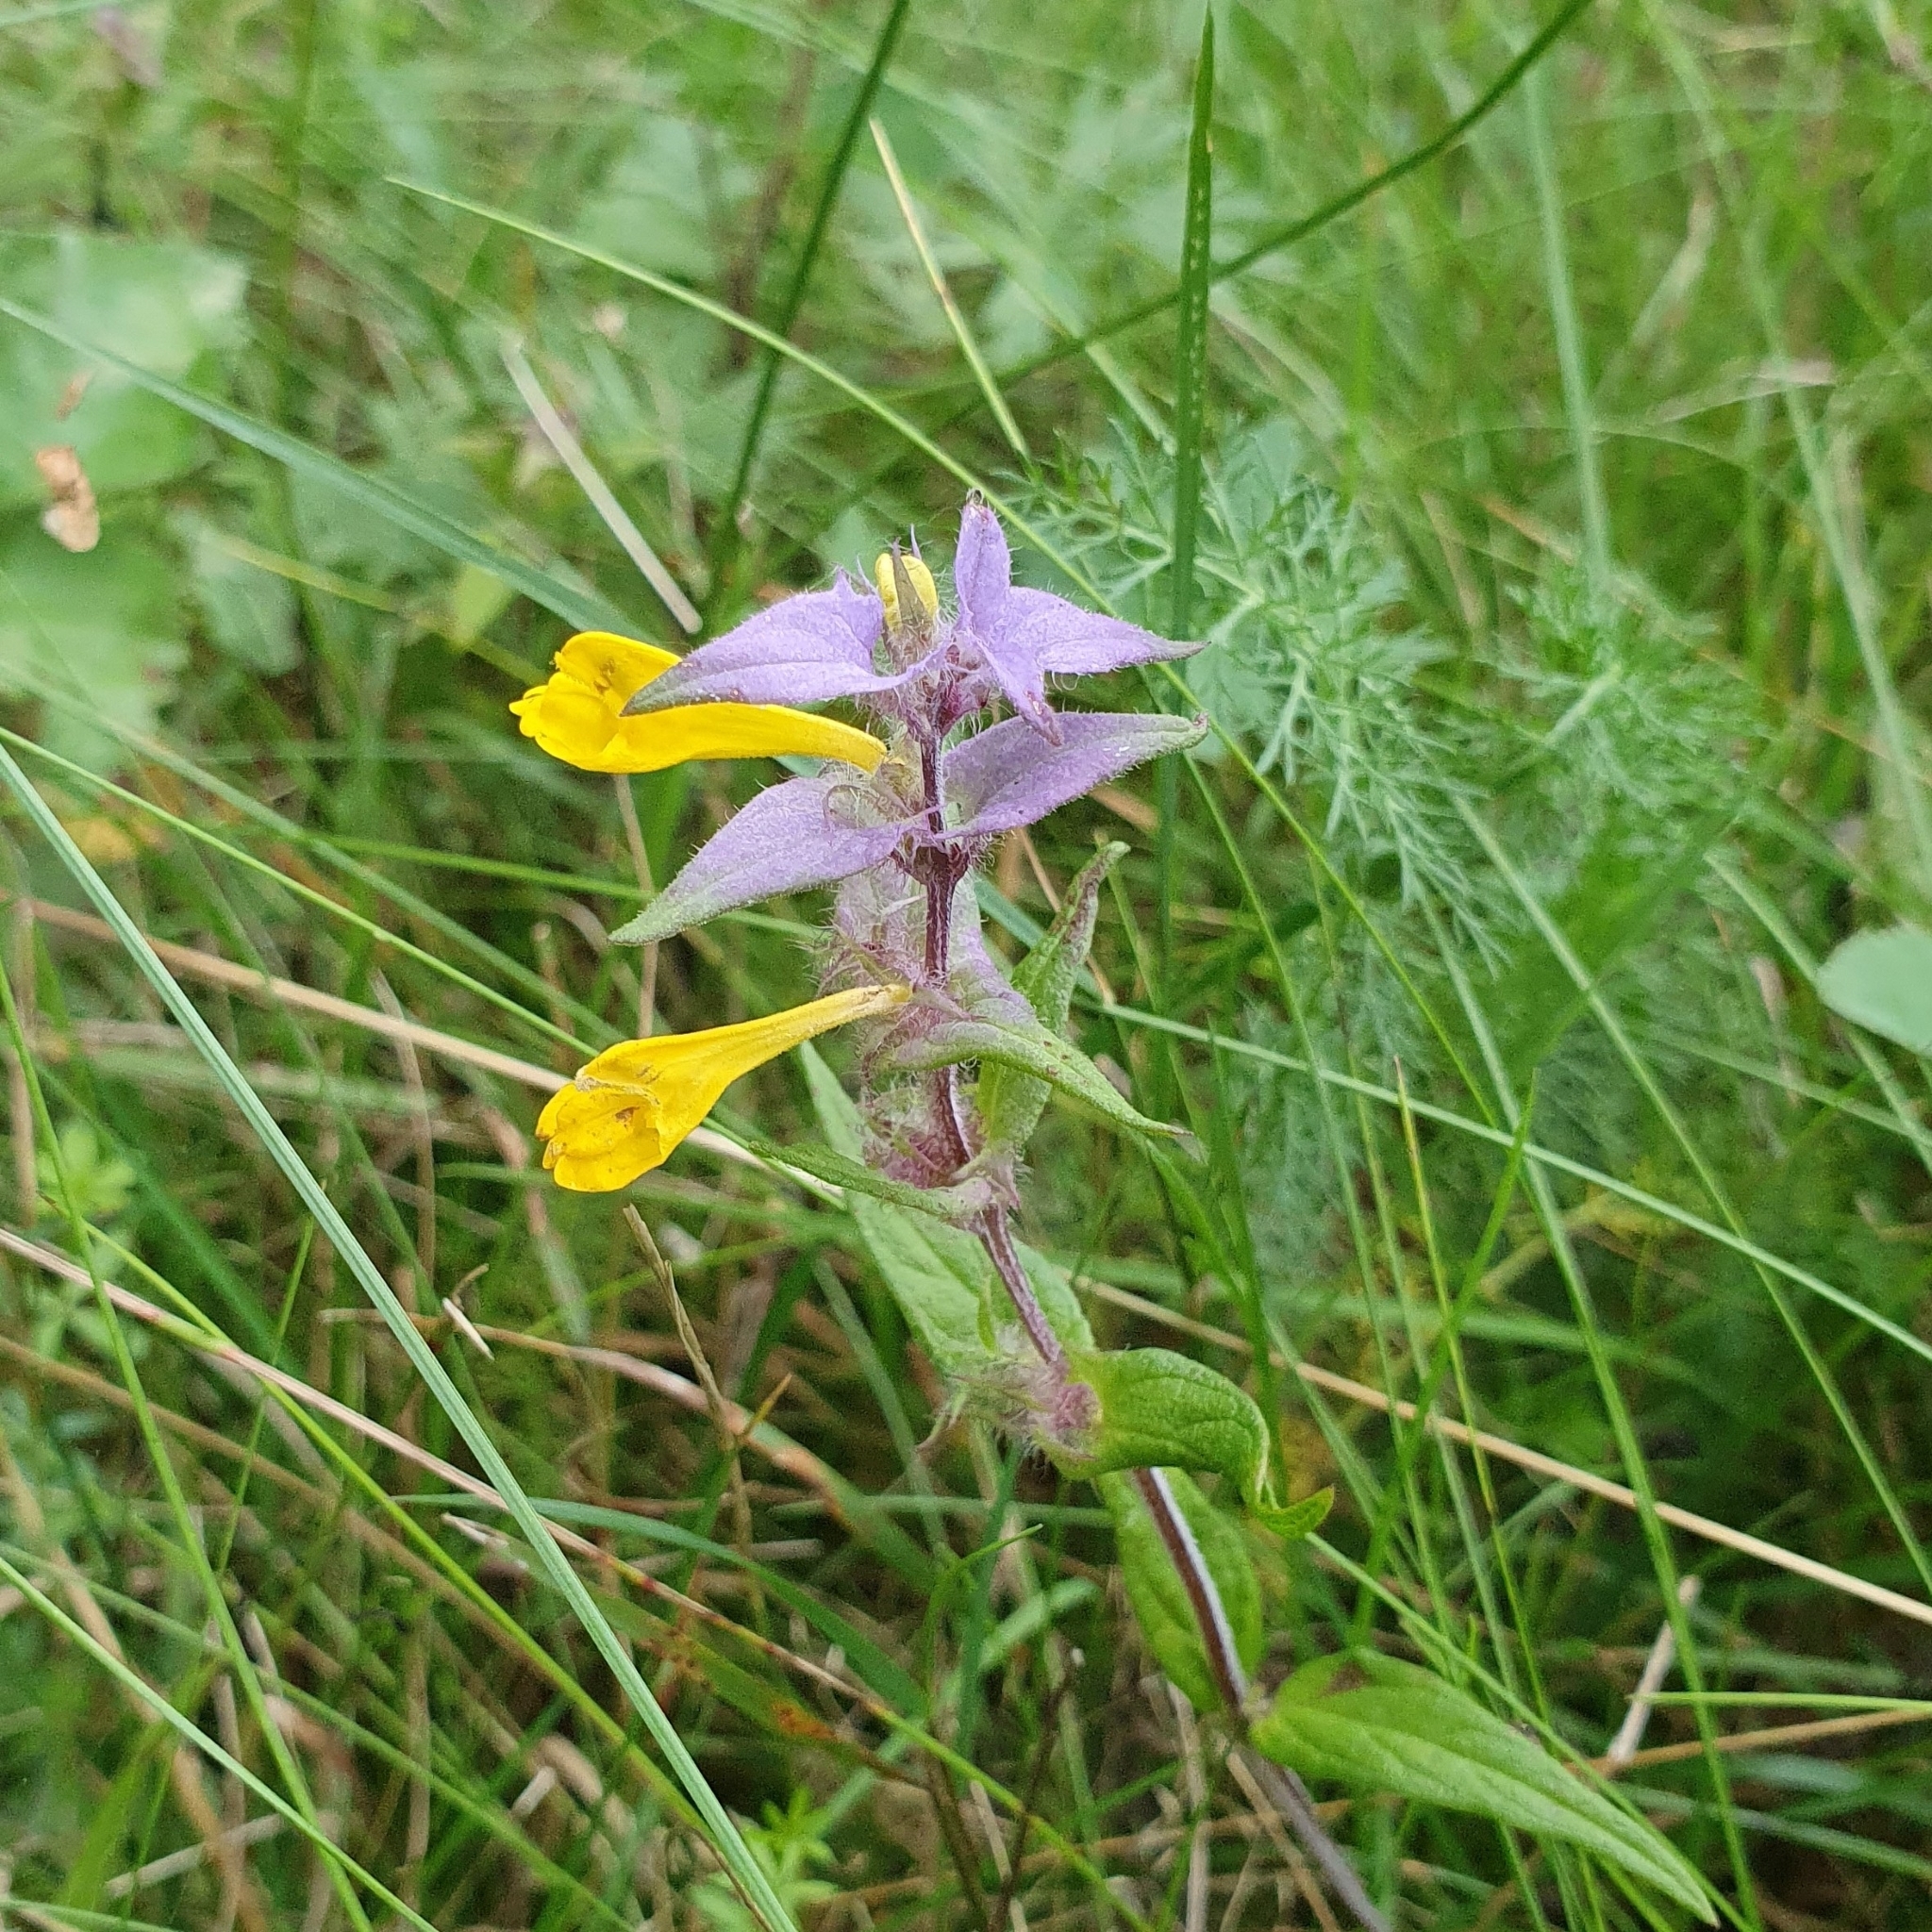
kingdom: Plantae
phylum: Tracheophyta
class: Magnoliopsida
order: Lamiales
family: Orobanchaceae
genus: Melampyrum
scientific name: Melampyrum nemorosum
